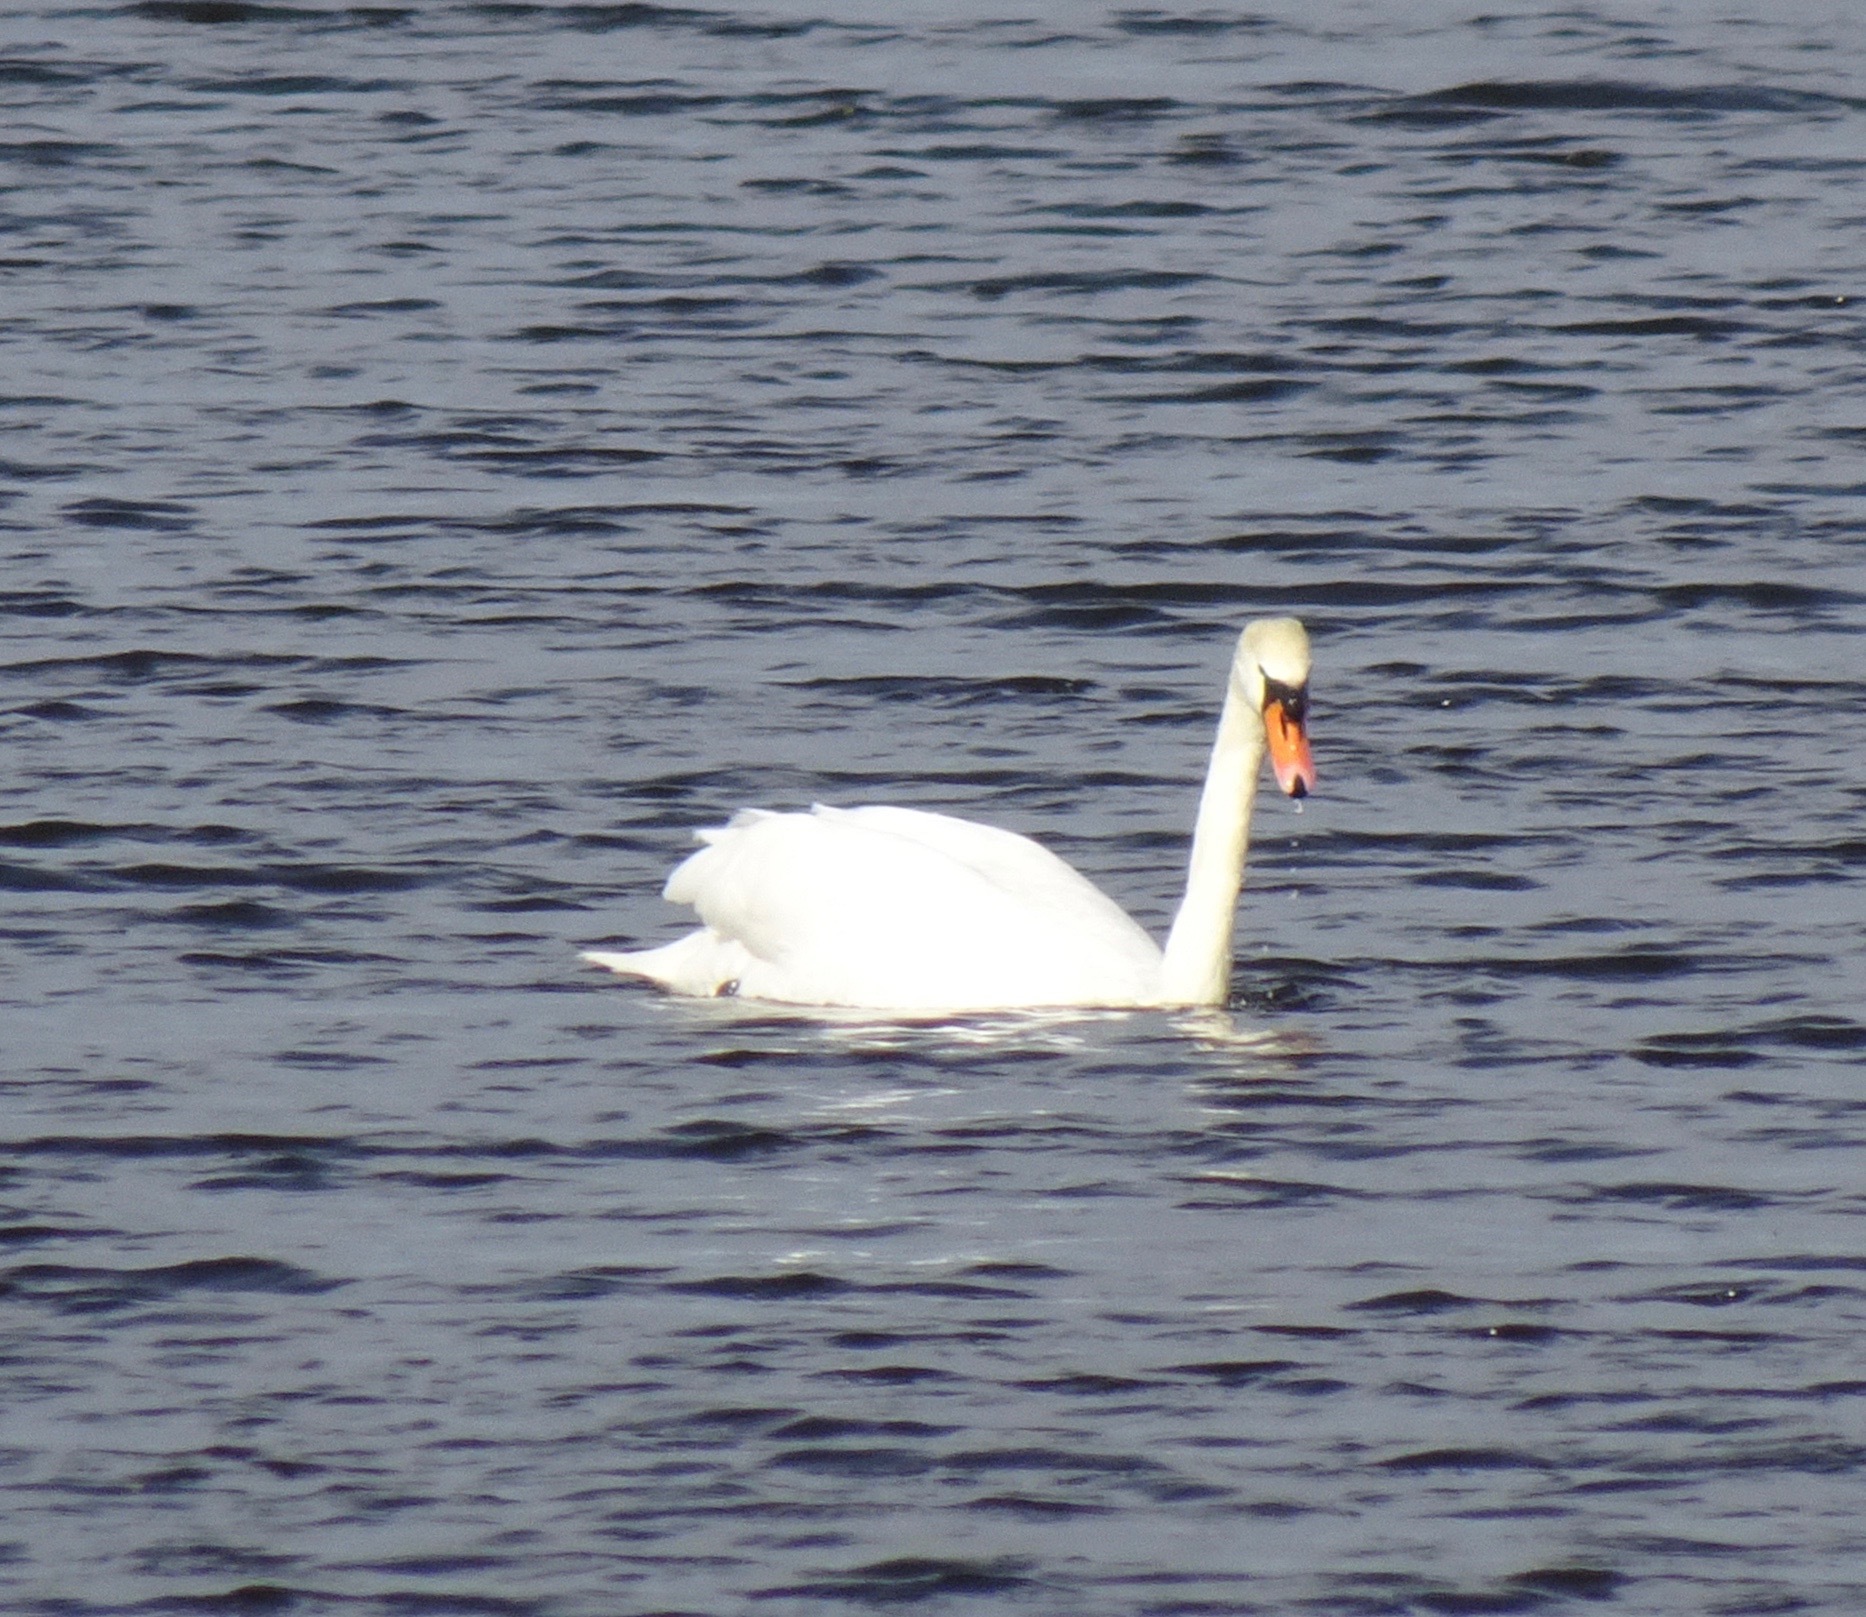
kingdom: Animalia
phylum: Chordata
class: Aves
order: Anseriformes
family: Anatidae
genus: Cygnus
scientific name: Cygnus olor
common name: Mute swan
